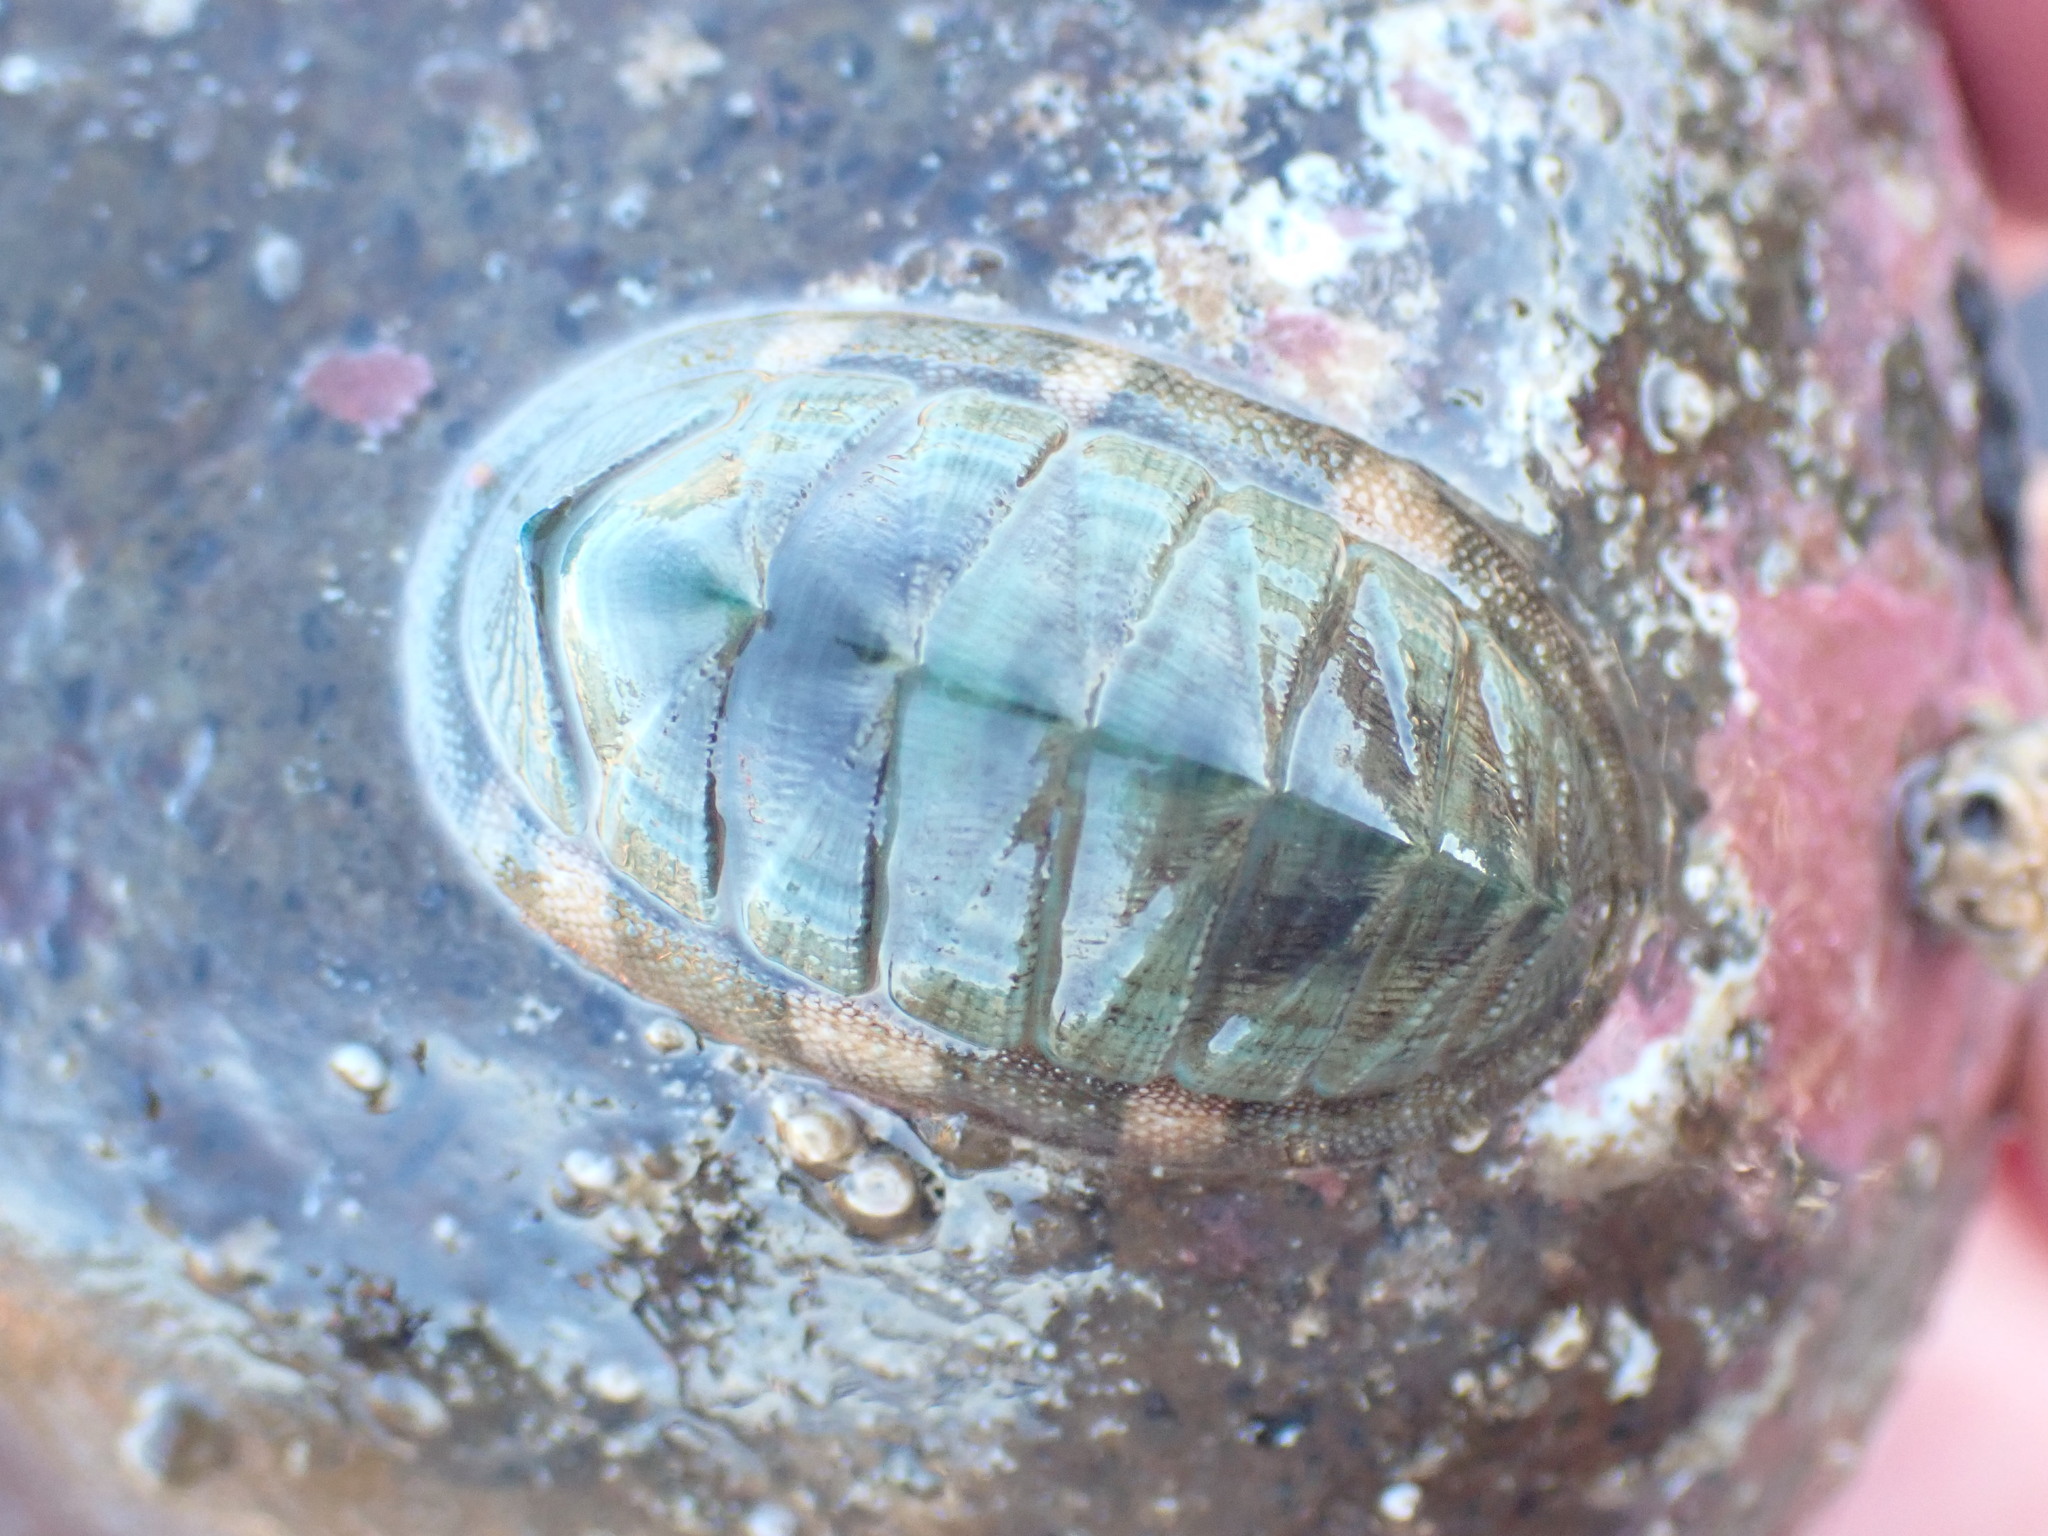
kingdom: Animalia
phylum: Mollusca
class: Polyplacophora
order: Chitonida
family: Chitonidae
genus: Rhyssoplax
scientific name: Rhyssoplax aerea
